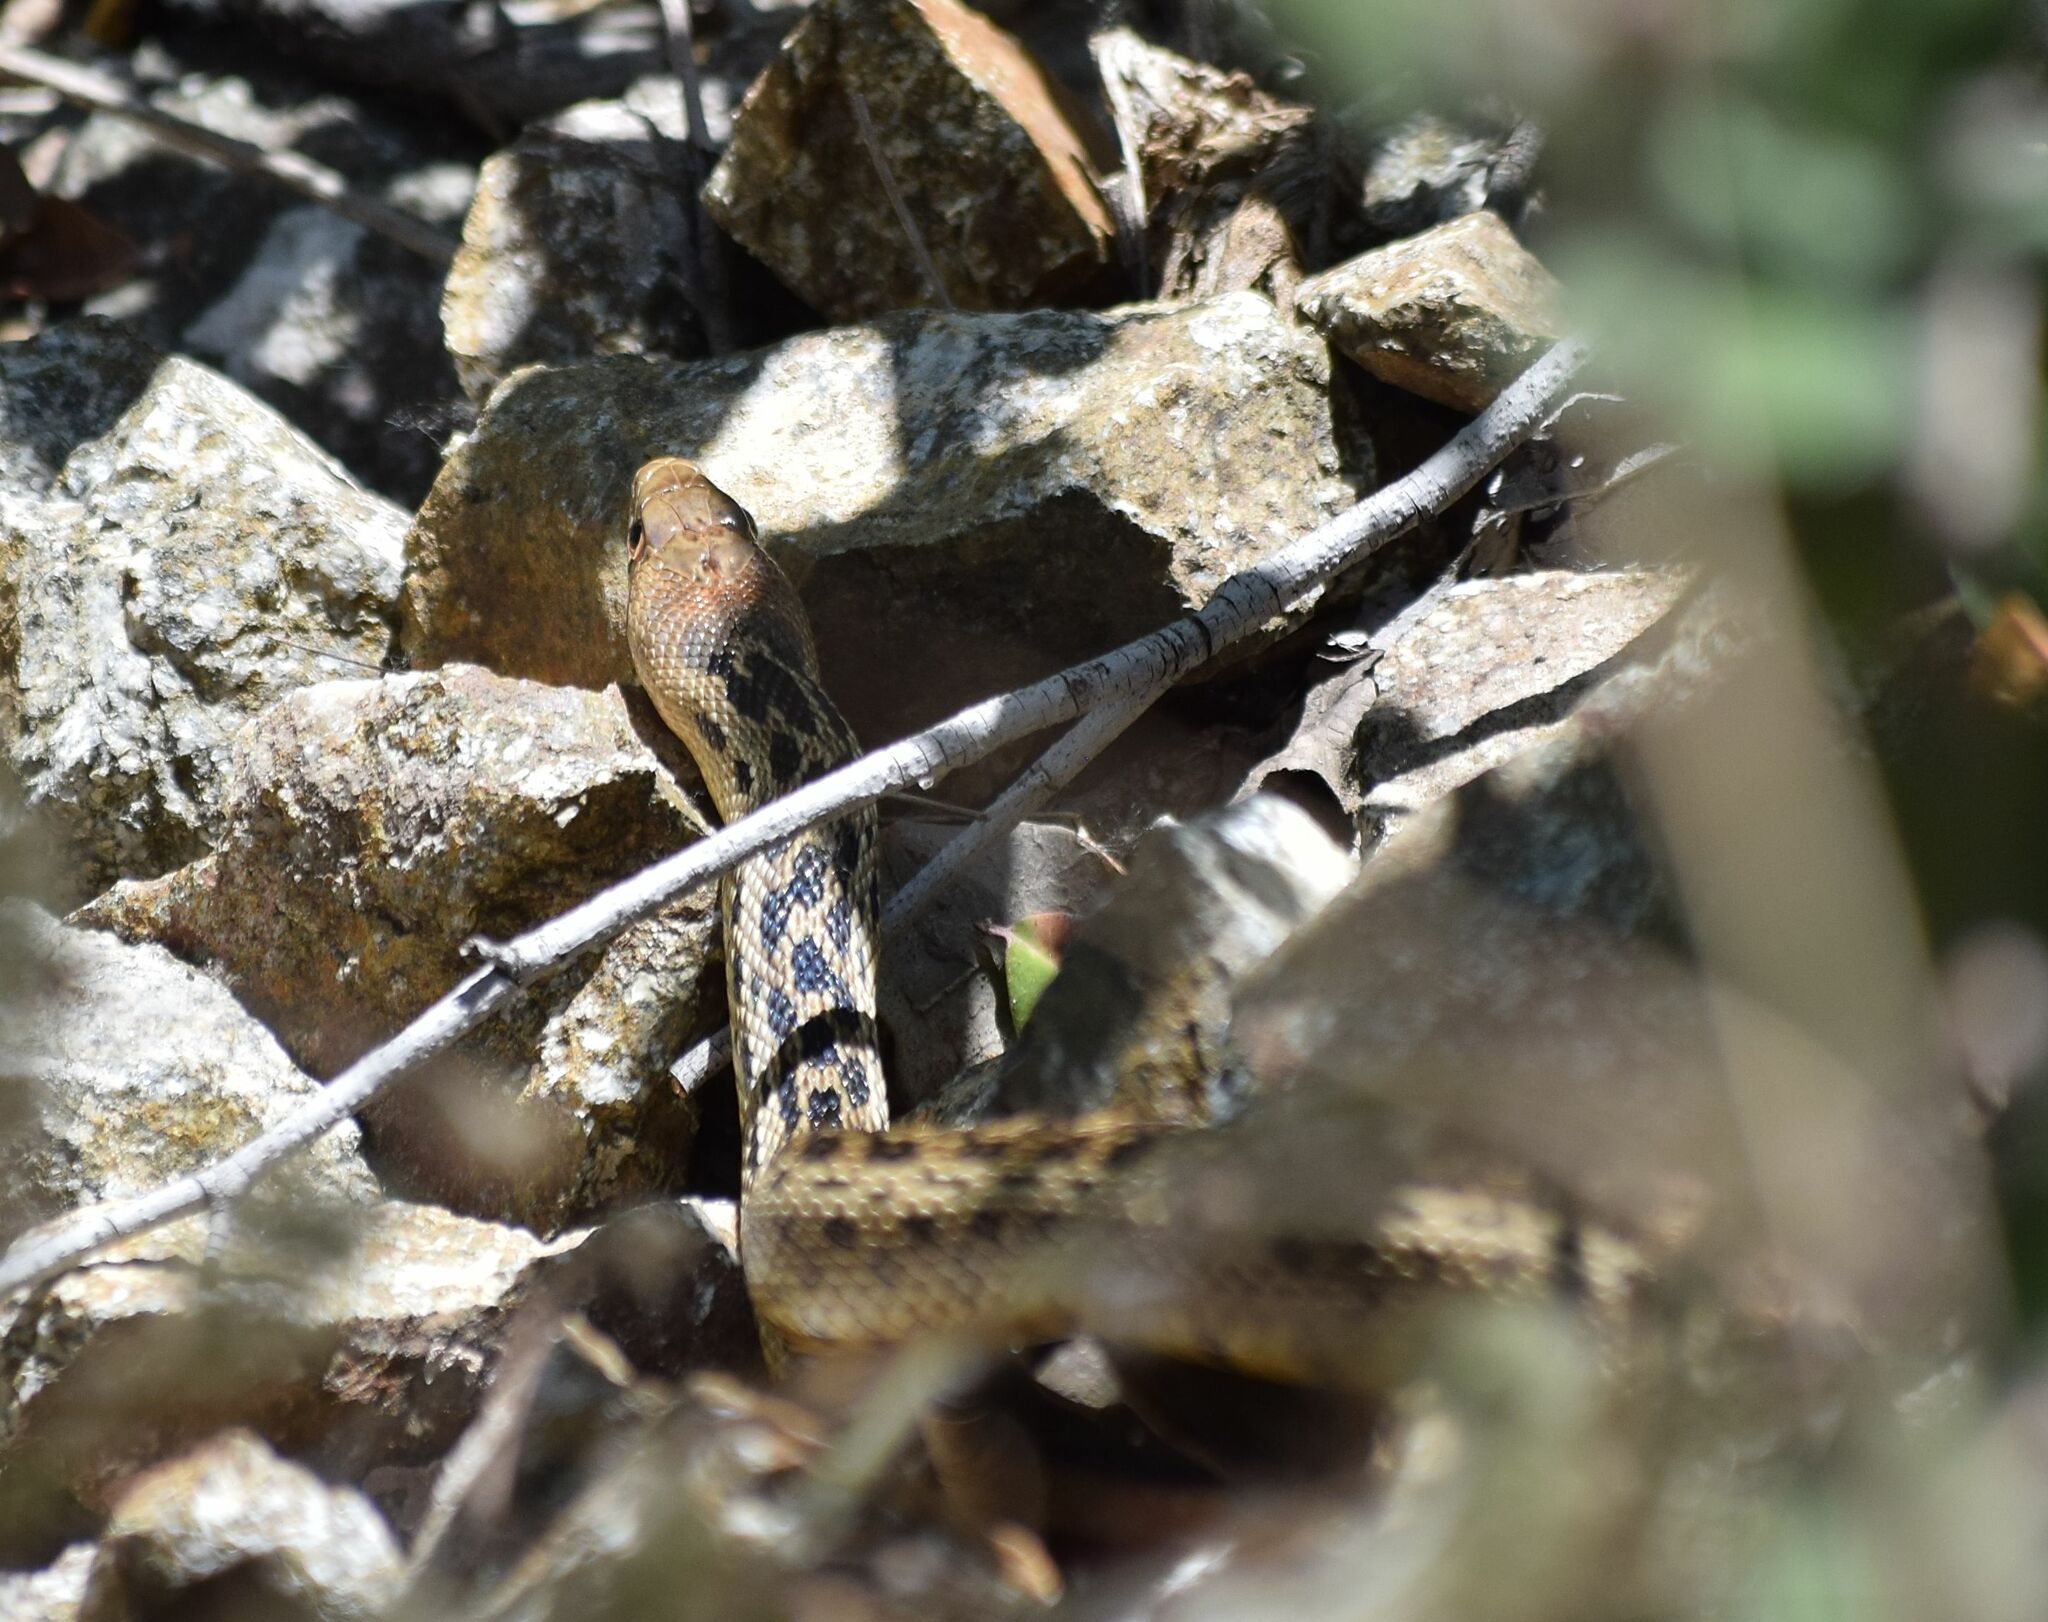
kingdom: Animalia
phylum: Chordata
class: Squamata
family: Colubridae
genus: Pituophis
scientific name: Pituophis catenifer
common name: Gopher snake
